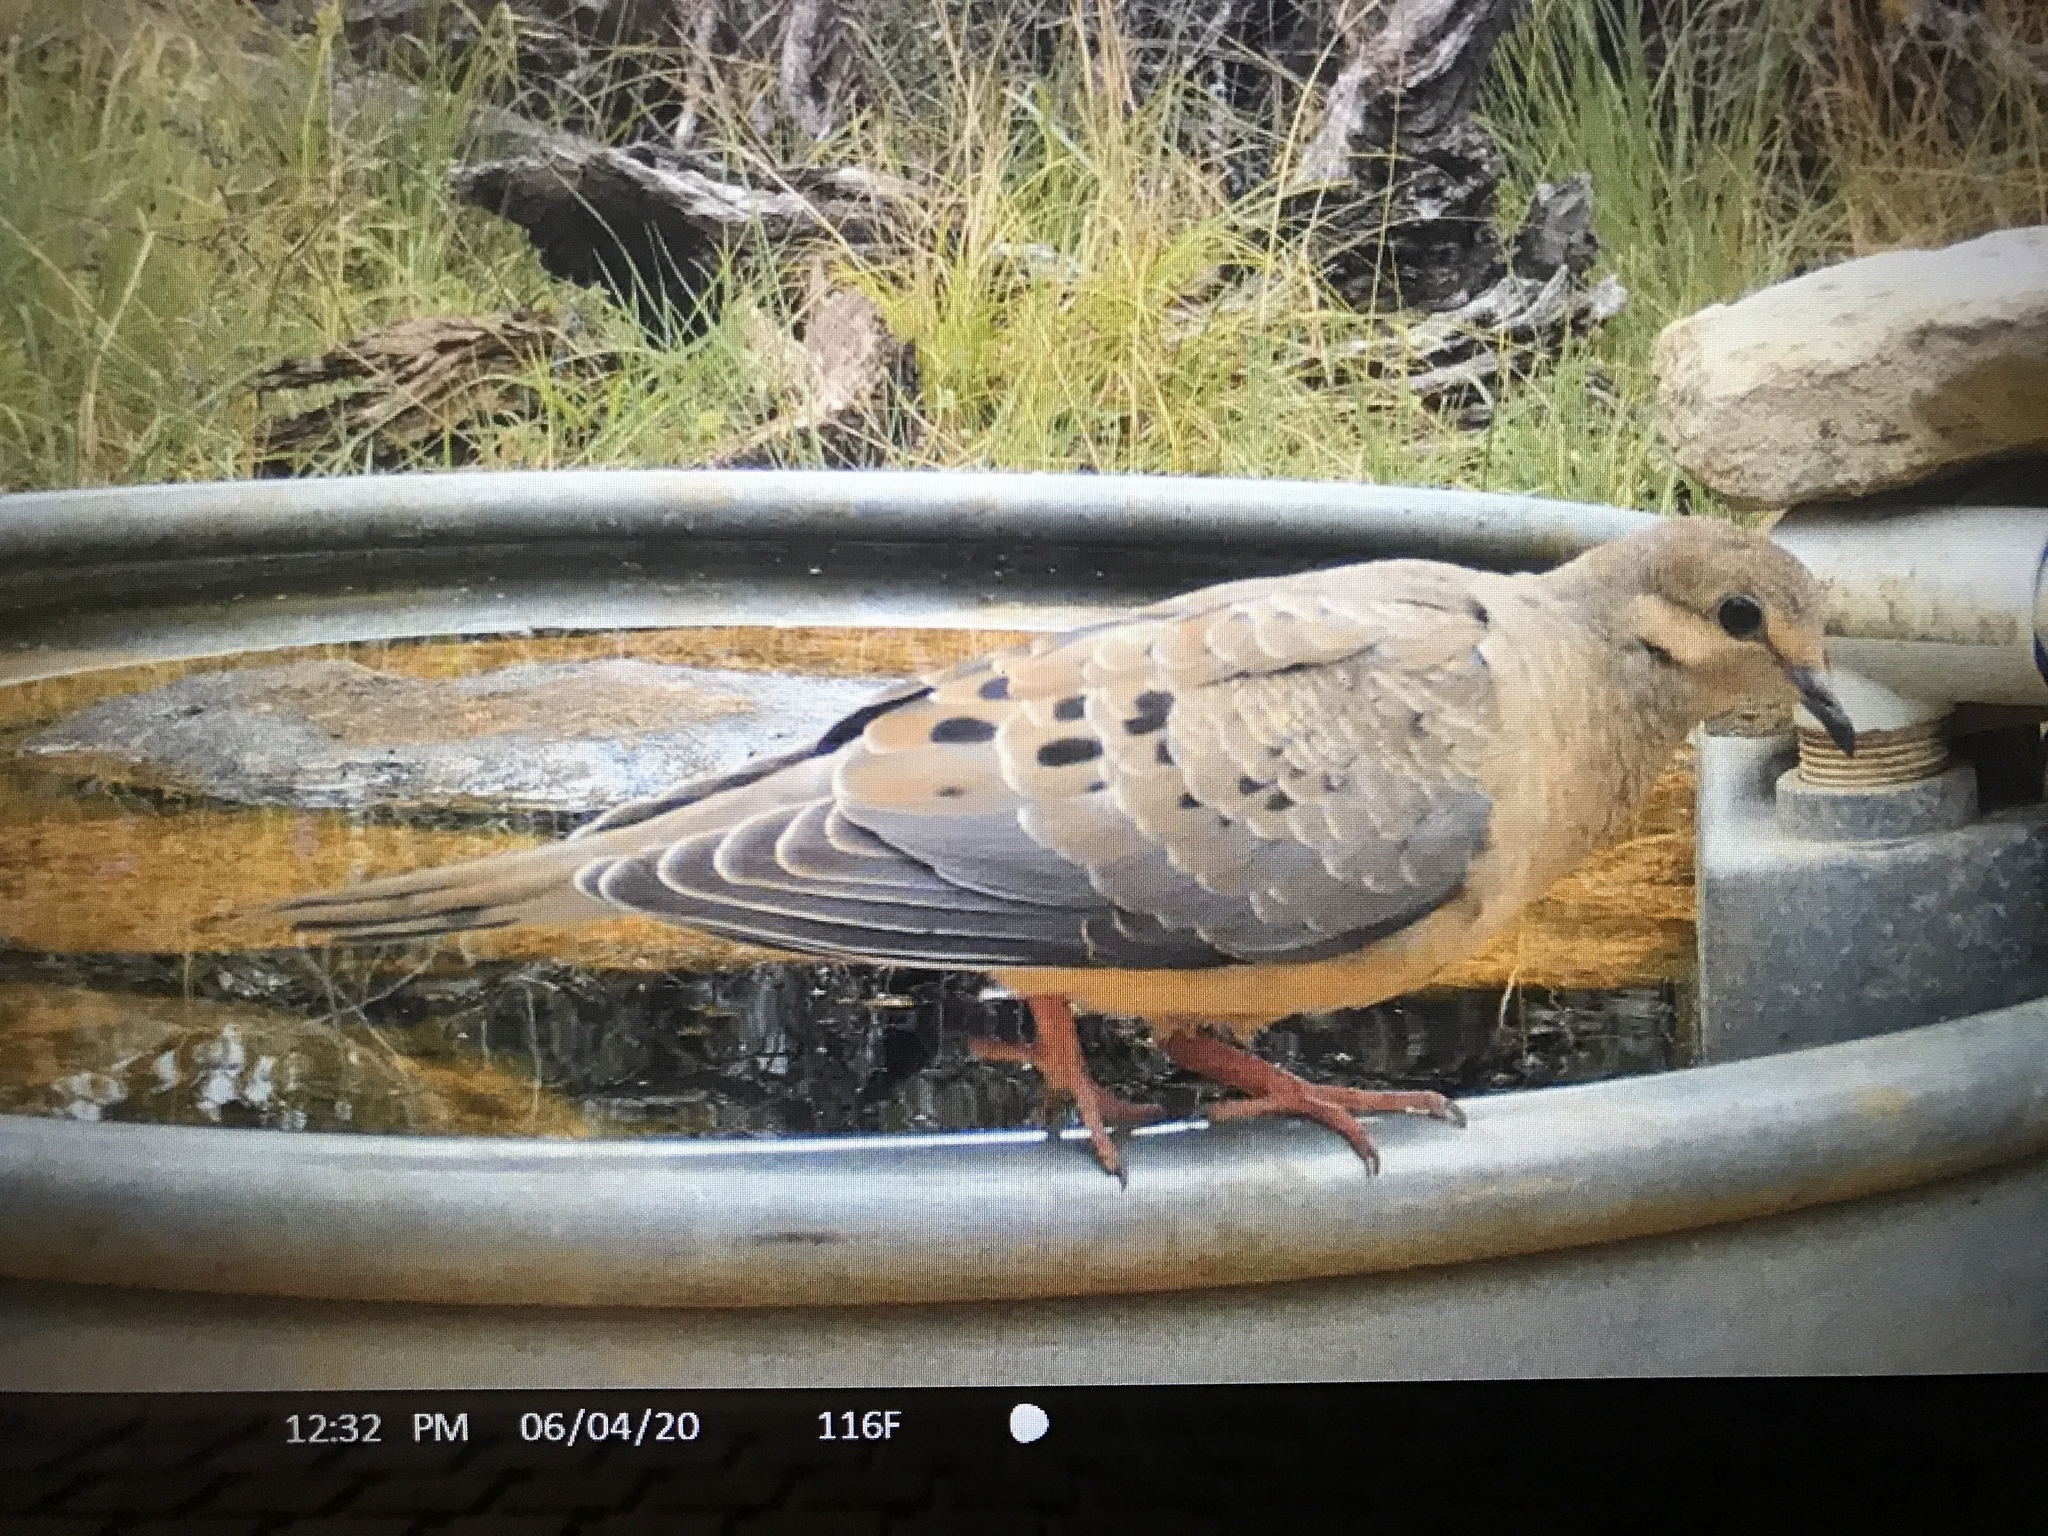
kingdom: Animalia
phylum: Chordata
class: Aves
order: Columbiformes
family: Columbidae
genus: Zenaida
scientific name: Zenaida macroura
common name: Mourning dove
